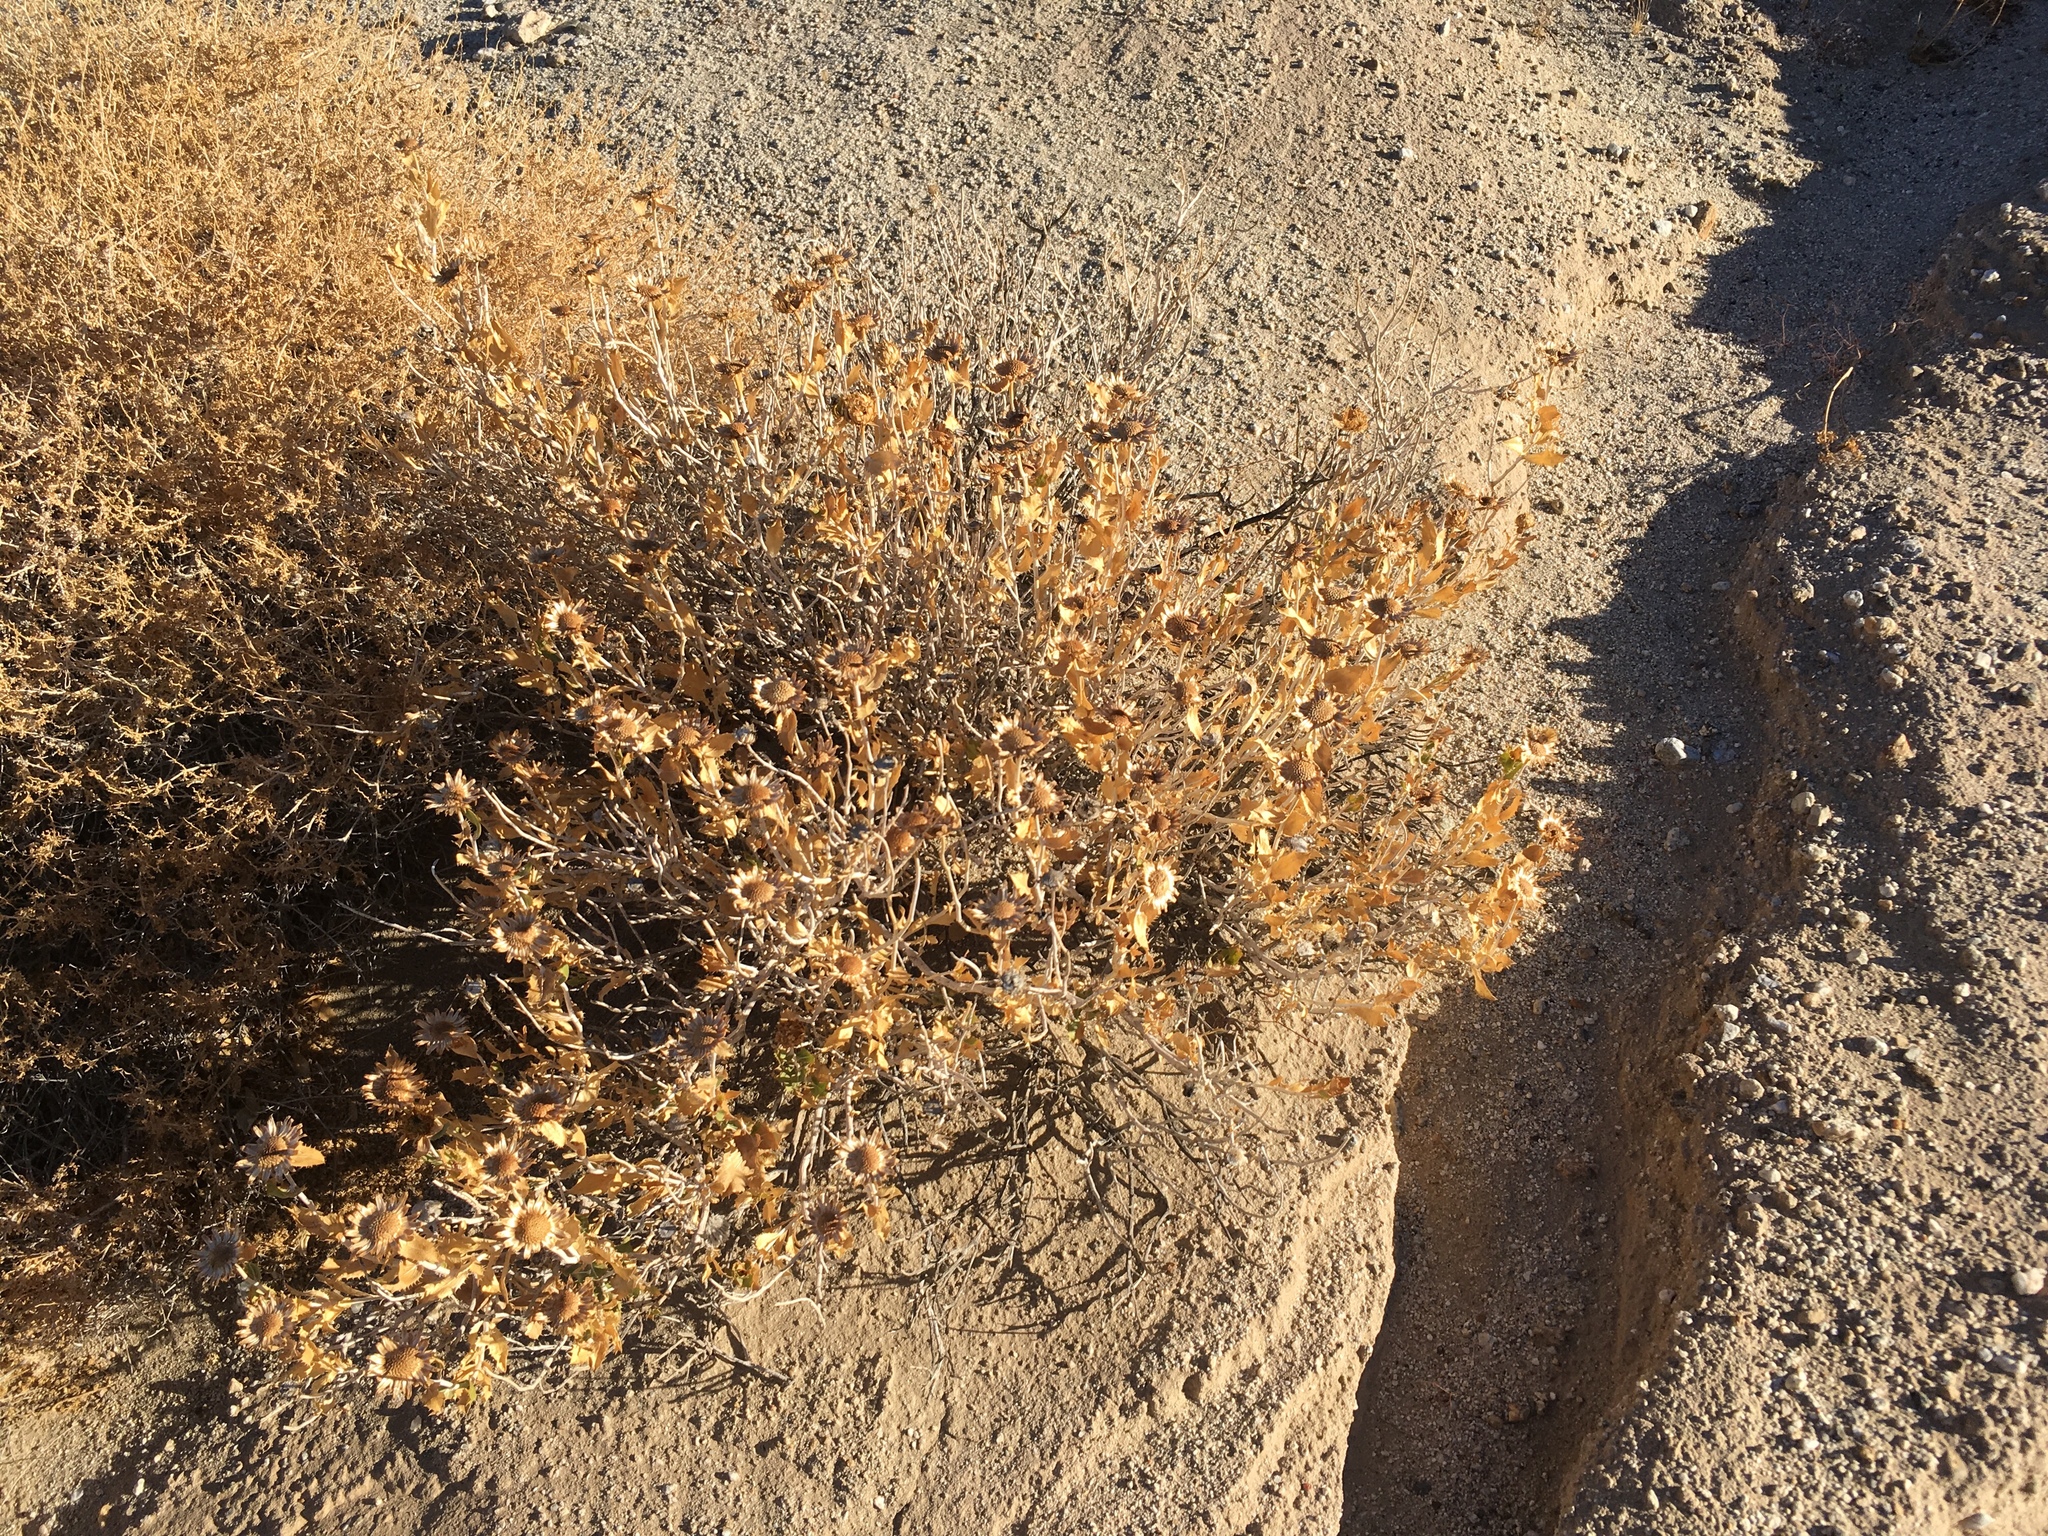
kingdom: Plantae
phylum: Tracheophyta
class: Magnoliopsida
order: Asterales
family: Asteraceae
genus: Xylorhiza
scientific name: Xylorhiza orcuttii
